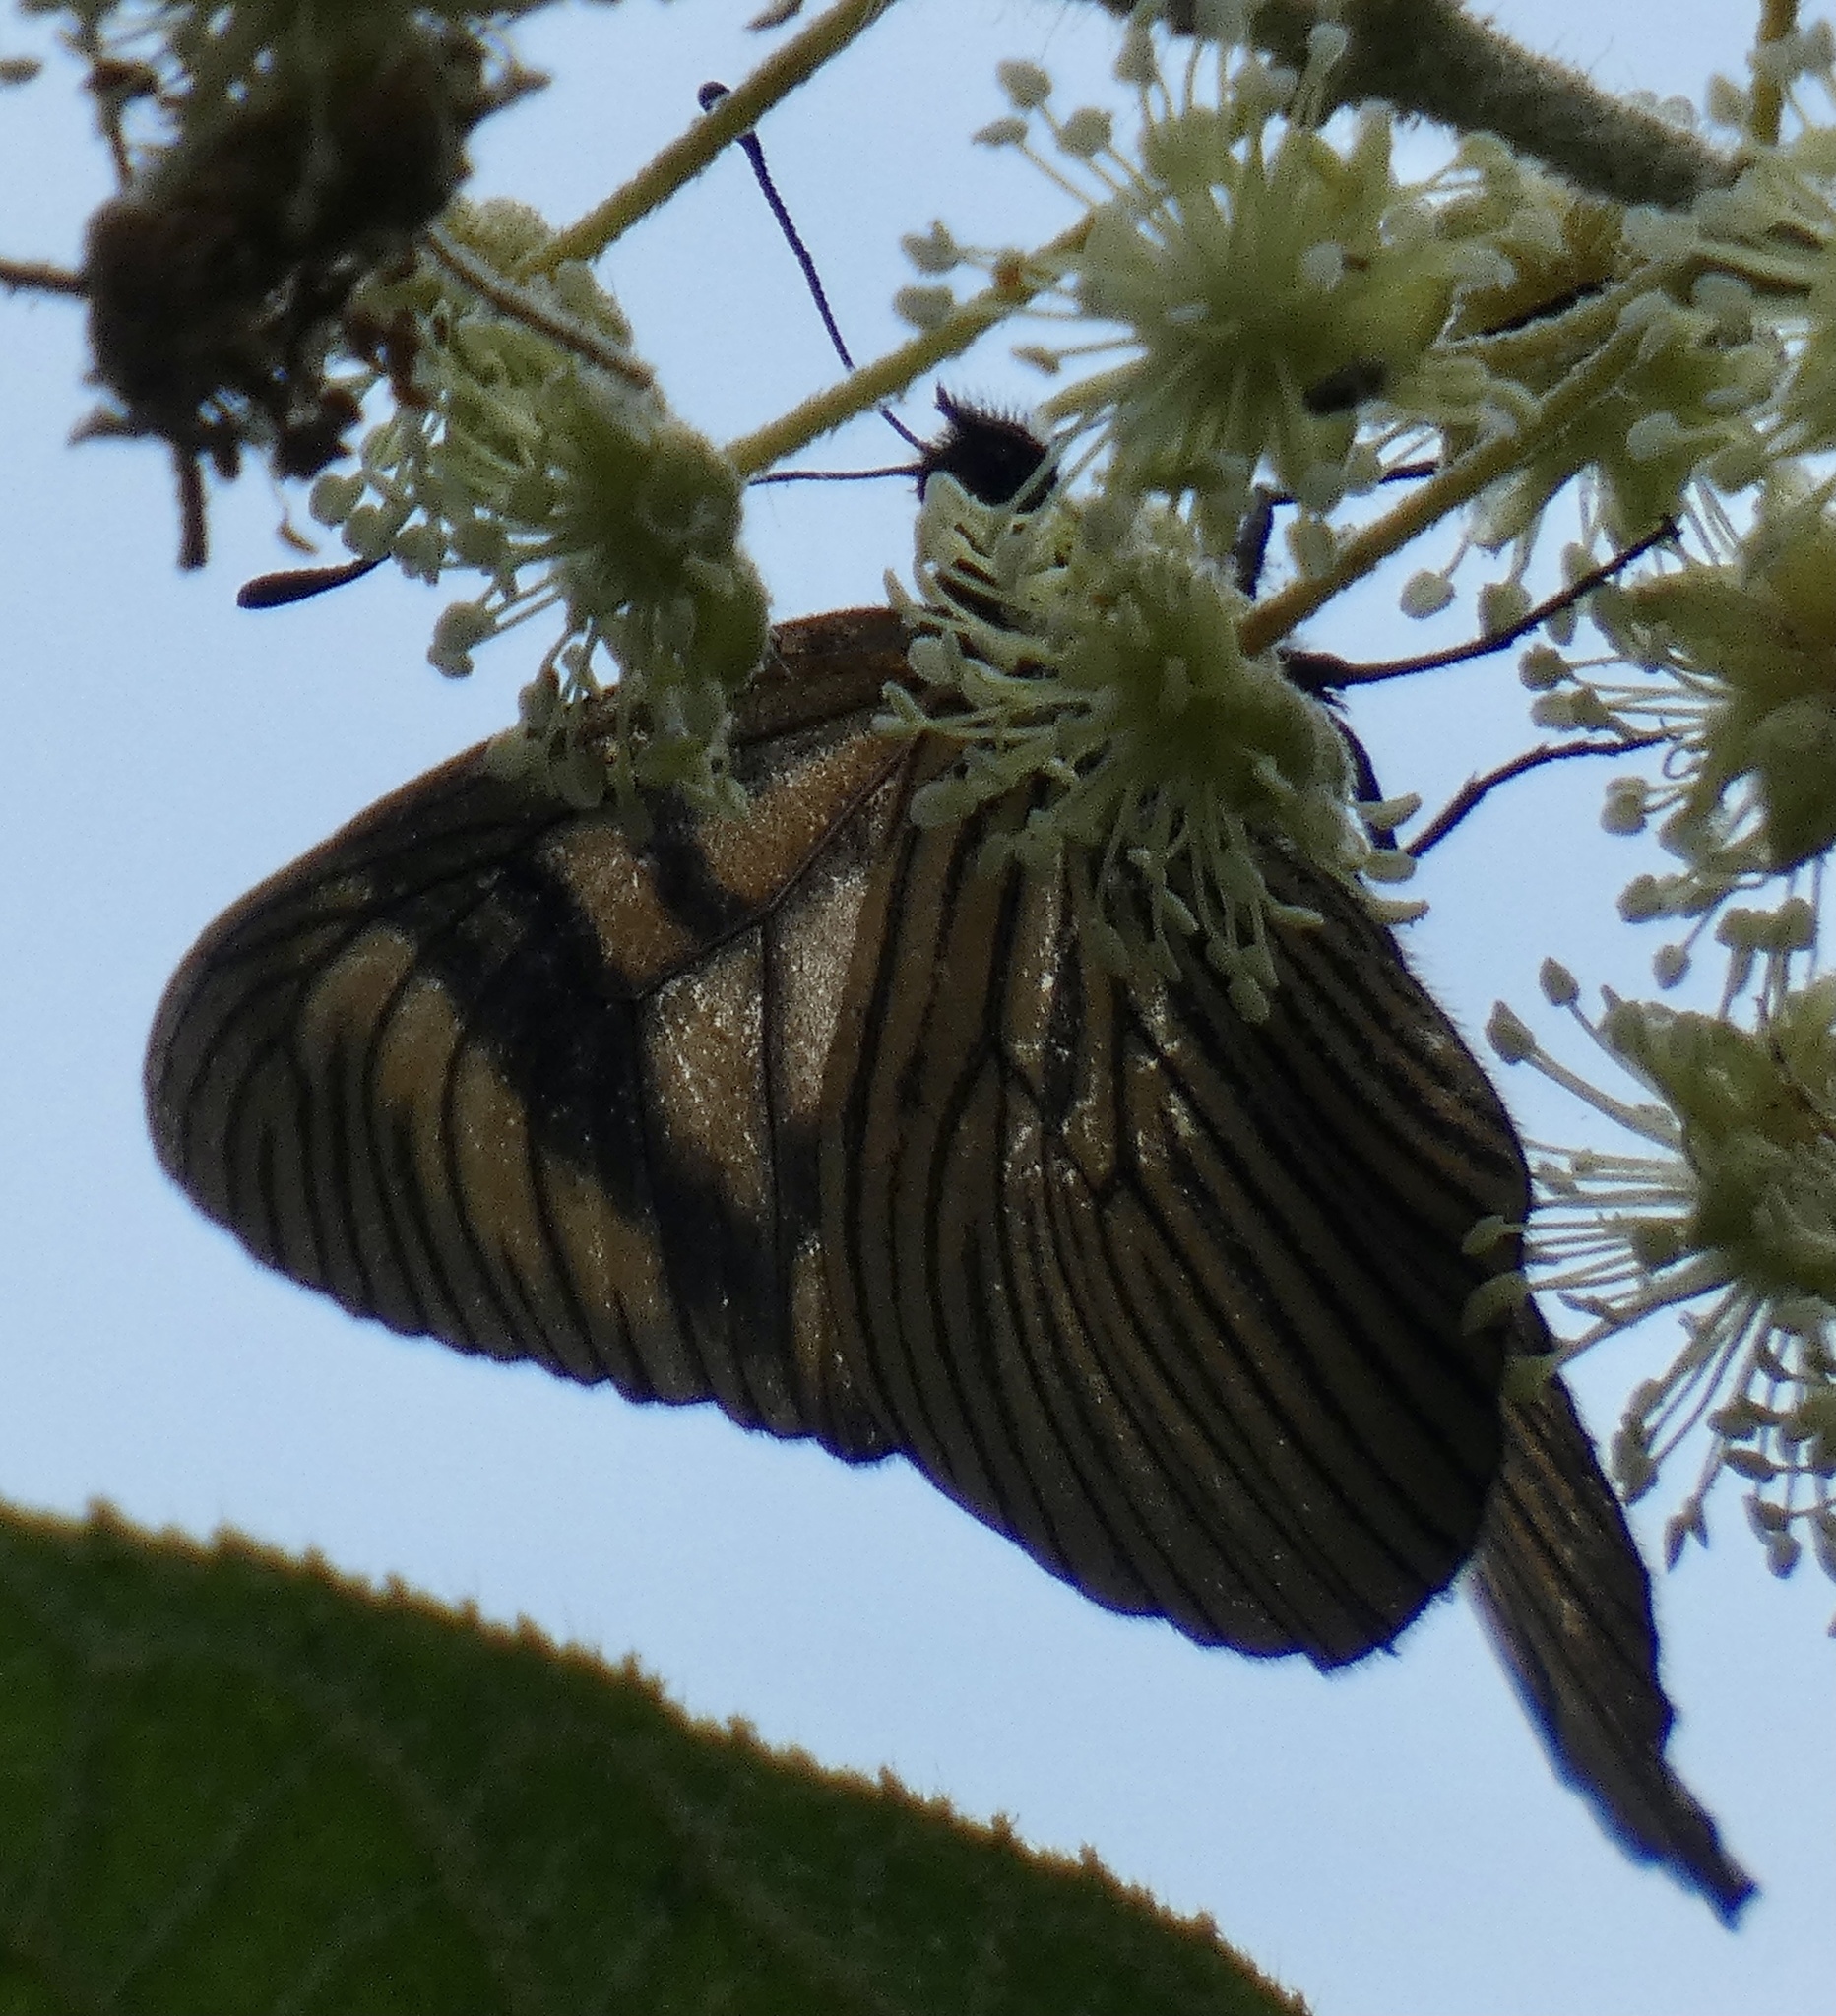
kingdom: Animalia
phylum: Arthropoda
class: Insecta
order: Lepidoptera
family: Nymphalidae
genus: Actinote
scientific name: Actinote quadra
